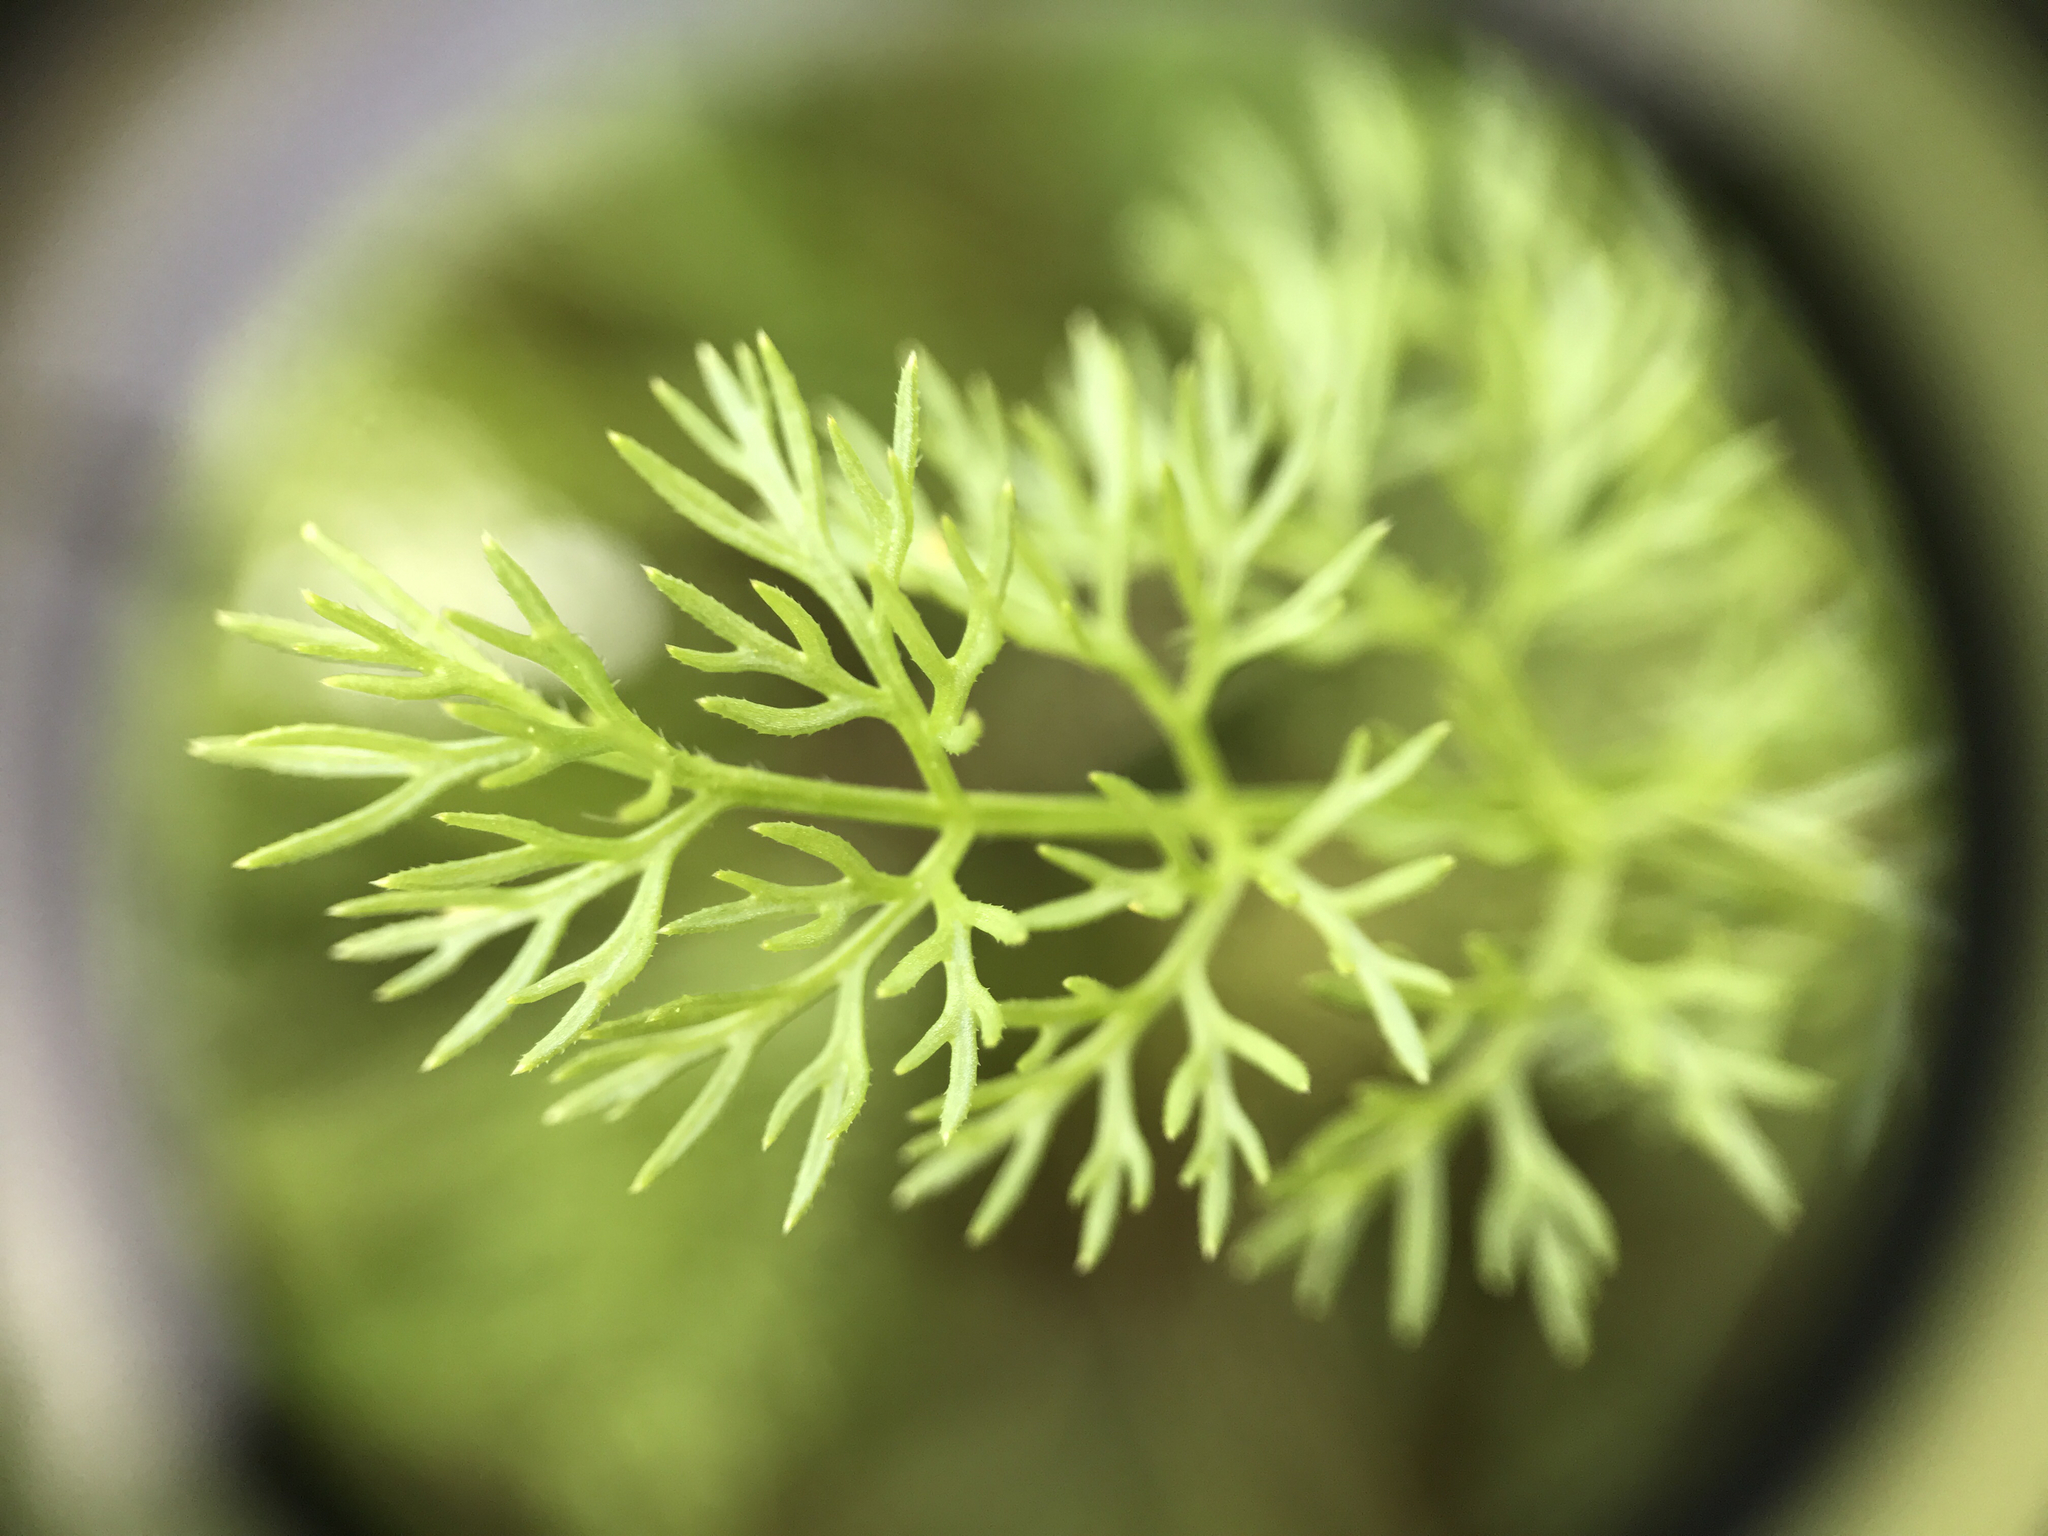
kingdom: Plantae
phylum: Tracheophyta
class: Magnoliopsida
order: Apiales
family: Apiaceae
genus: Scandix
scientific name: Scandix pecten-veneris
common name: Shepherd's-needle
